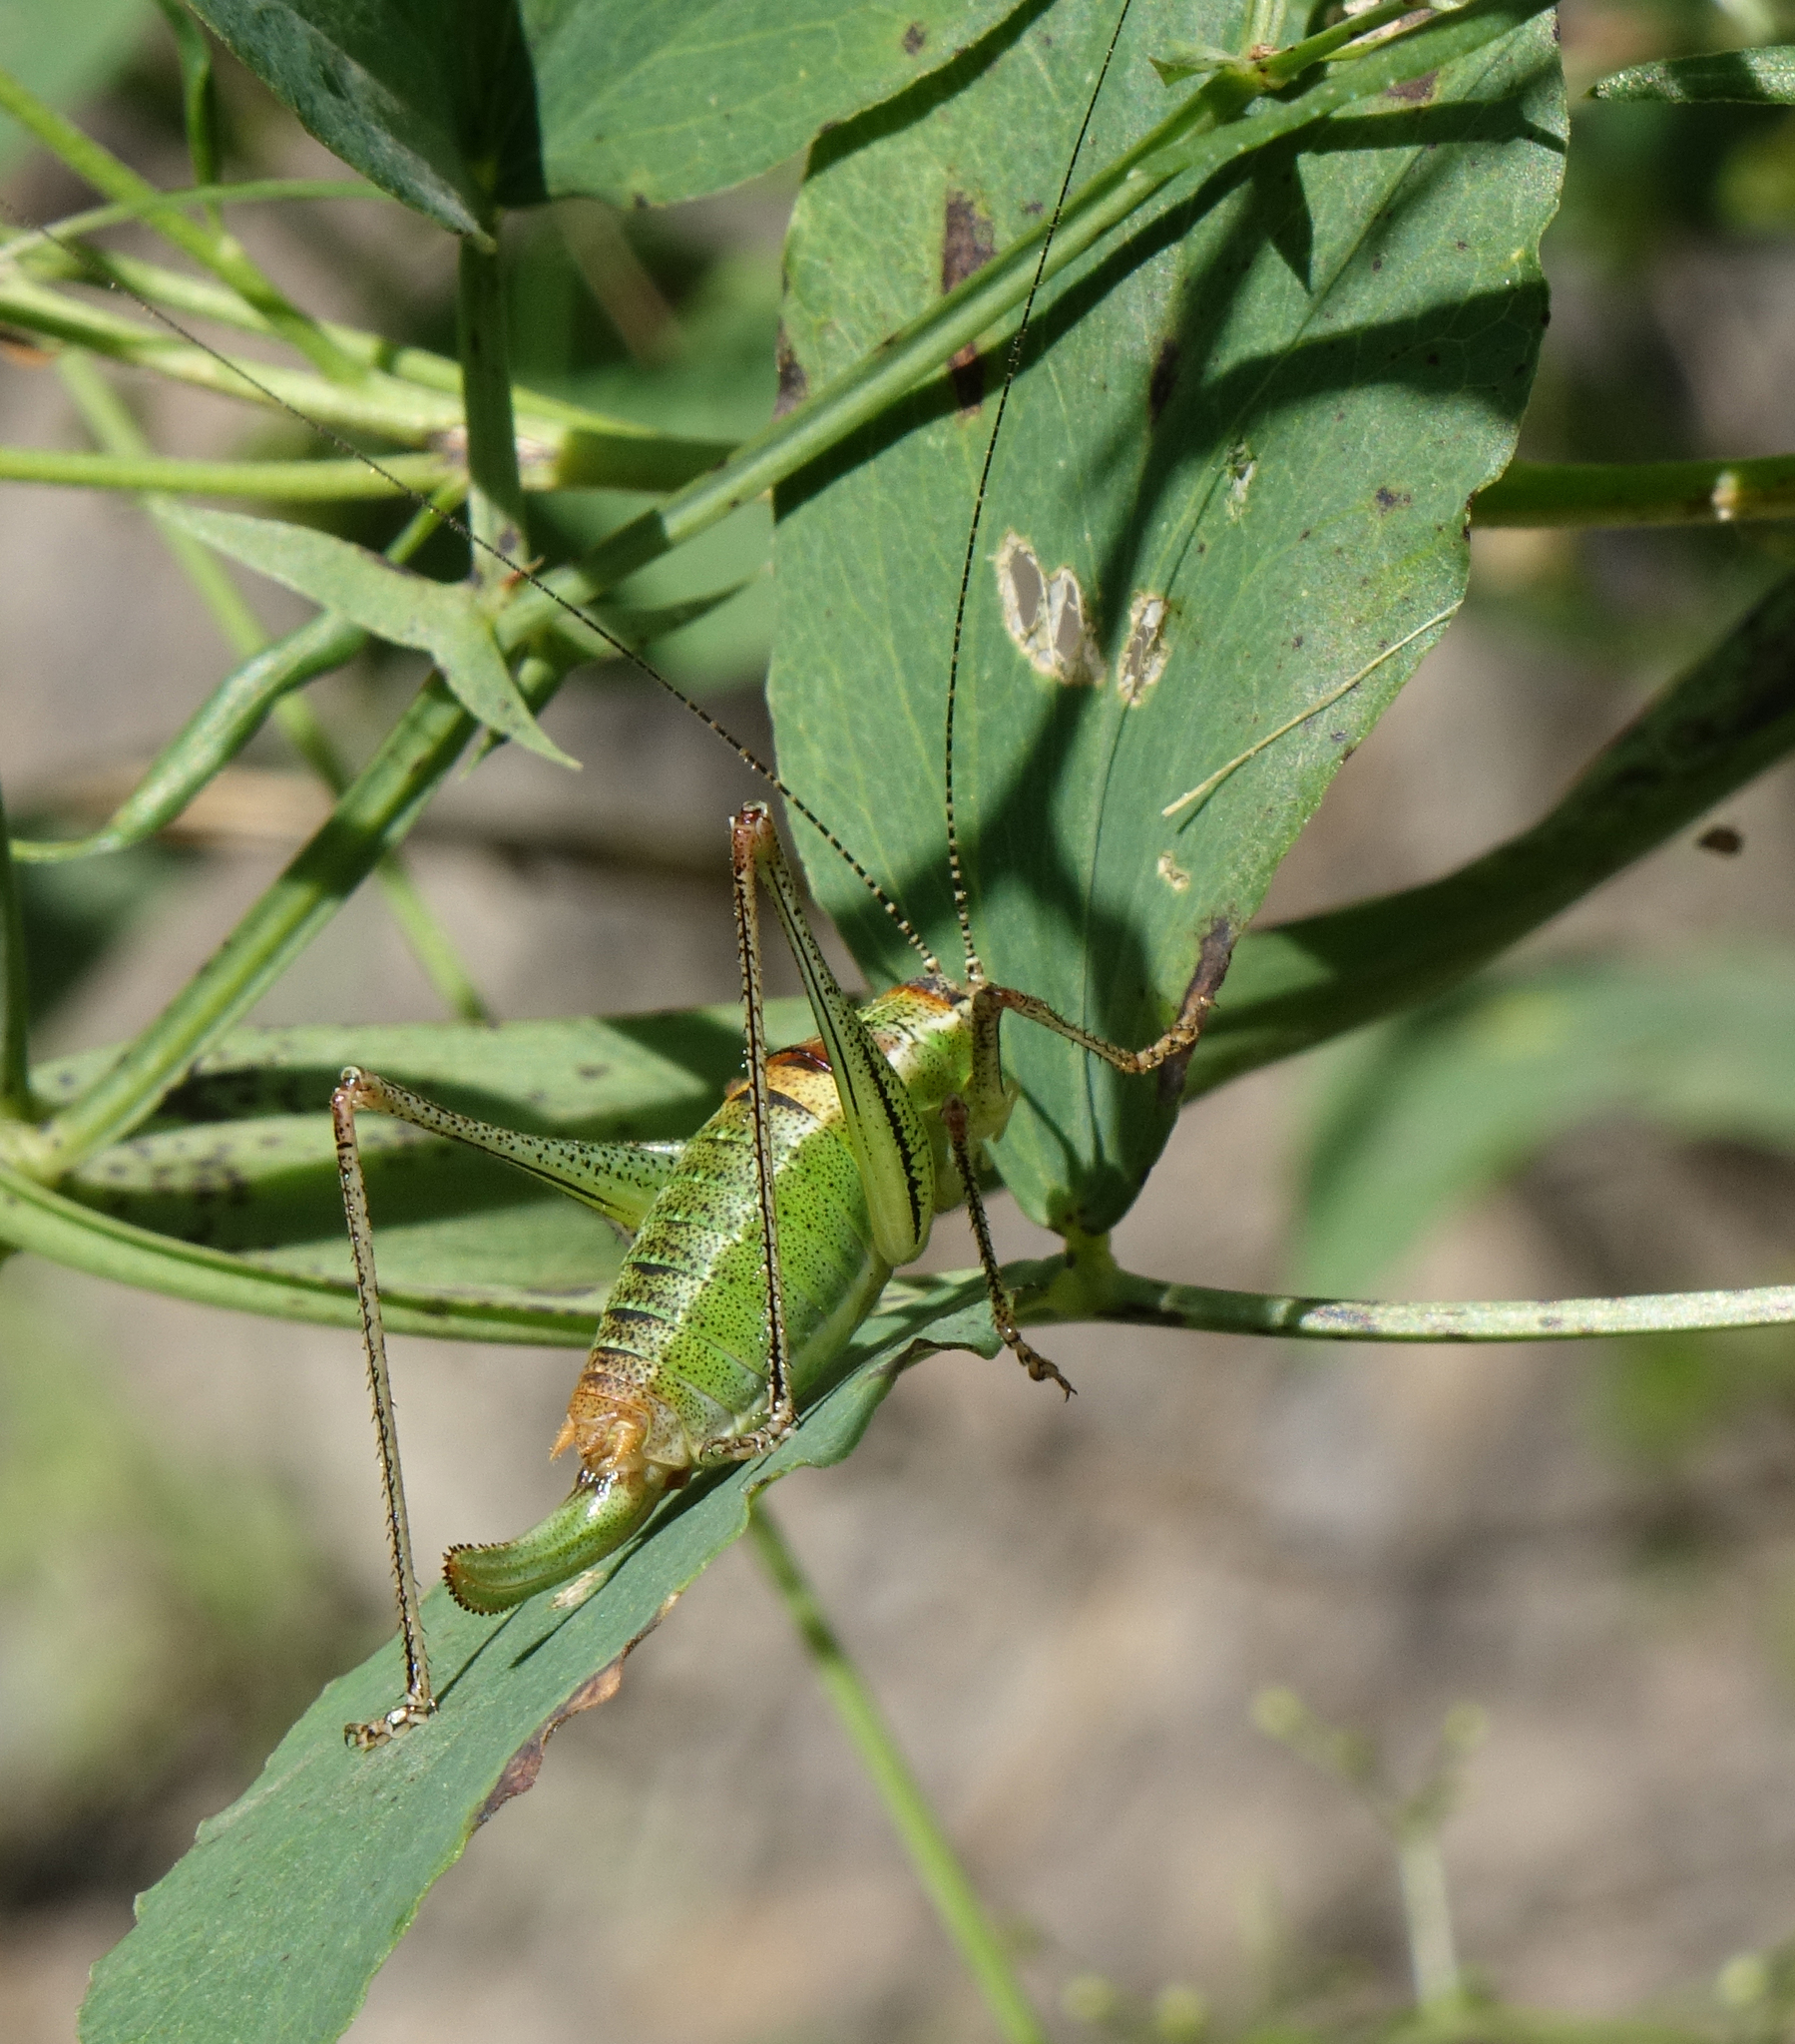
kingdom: Animalia
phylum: Arthropoda
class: Insecta
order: Orthoptera
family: Tettigoniidae
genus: Poecilimon
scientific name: Poecilimon geoktschajcus
